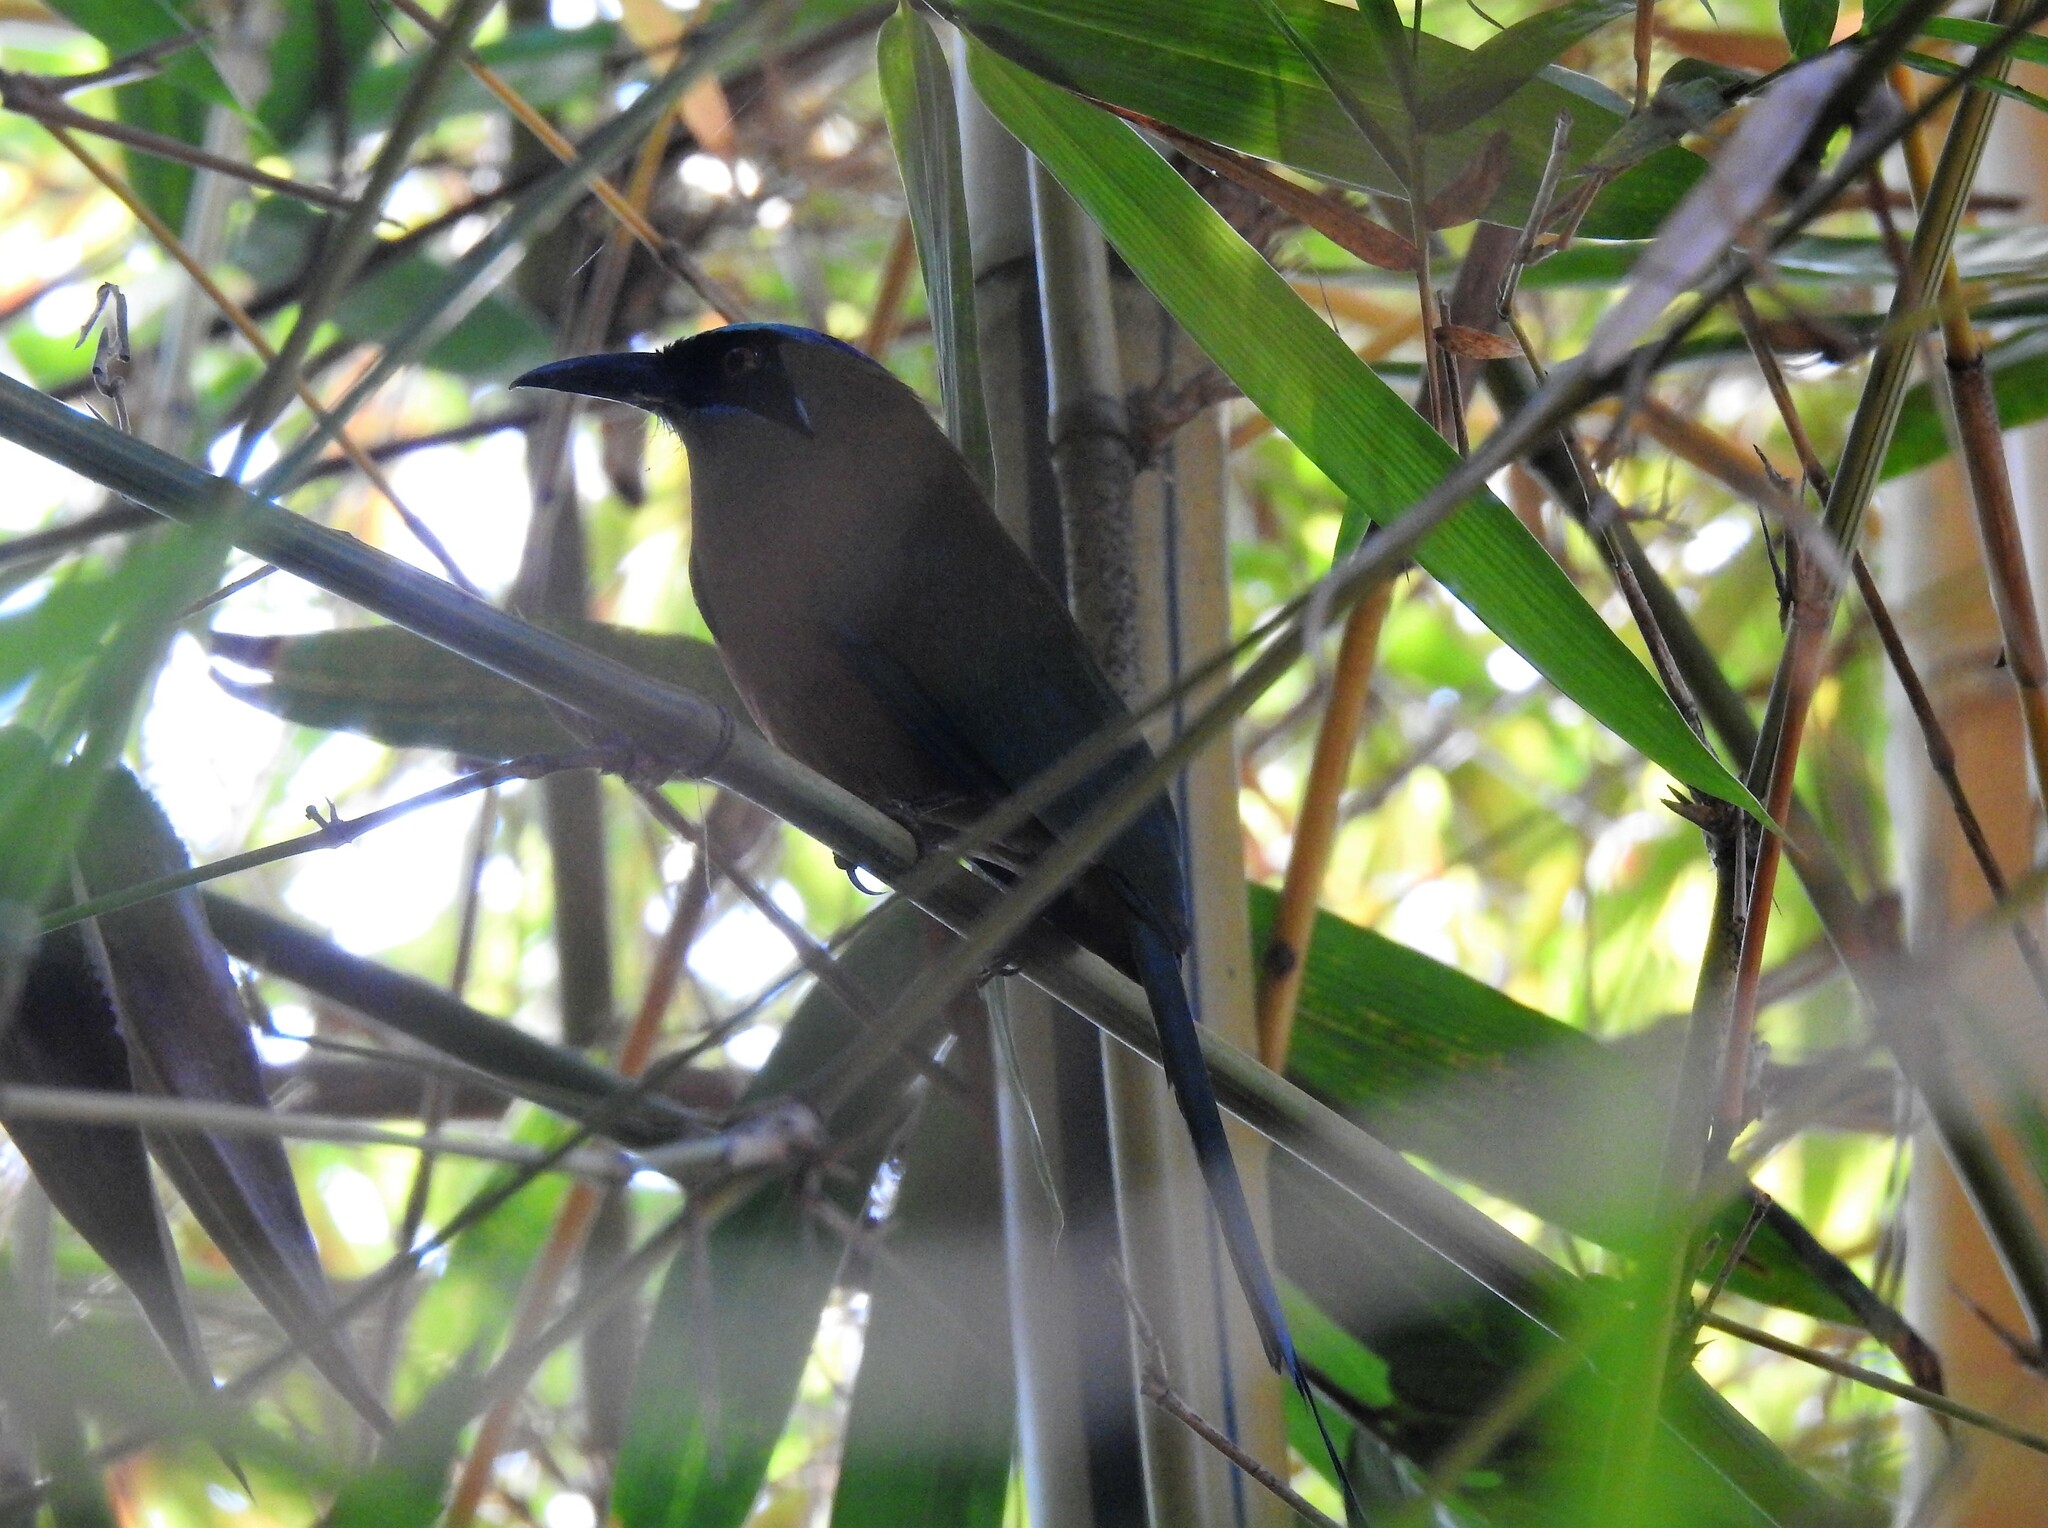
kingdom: Animalia
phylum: Chordata
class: Aves
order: Coraciiformes
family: Momotidae
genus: Momotus
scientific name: Momotus subrufescens
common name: Whooping motmot
